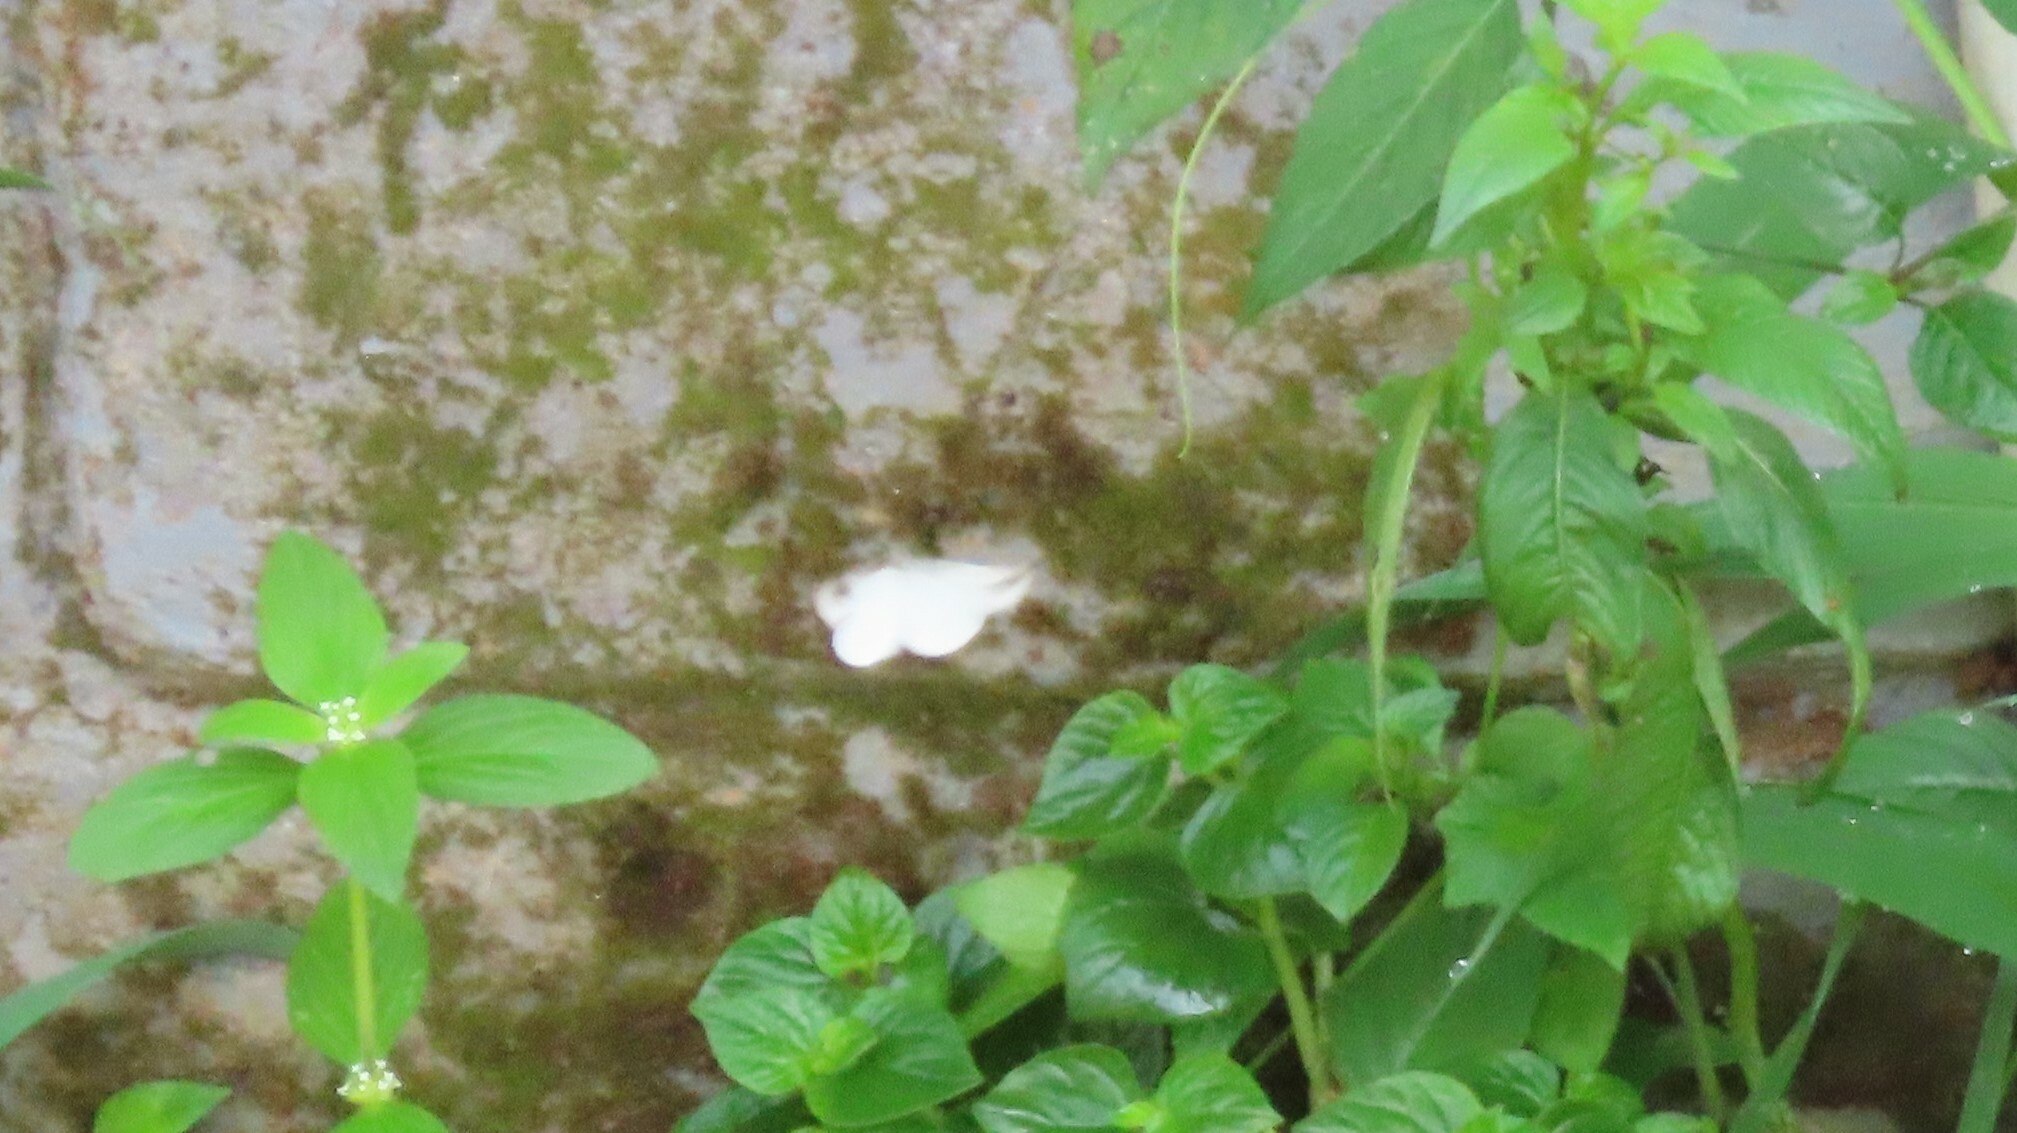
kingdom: Animalia
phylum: Arthropoda
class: Insecta
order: Lepidoptera
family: Pieridae
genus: Leptosia
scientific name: Leptosia nina
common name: Psyche
